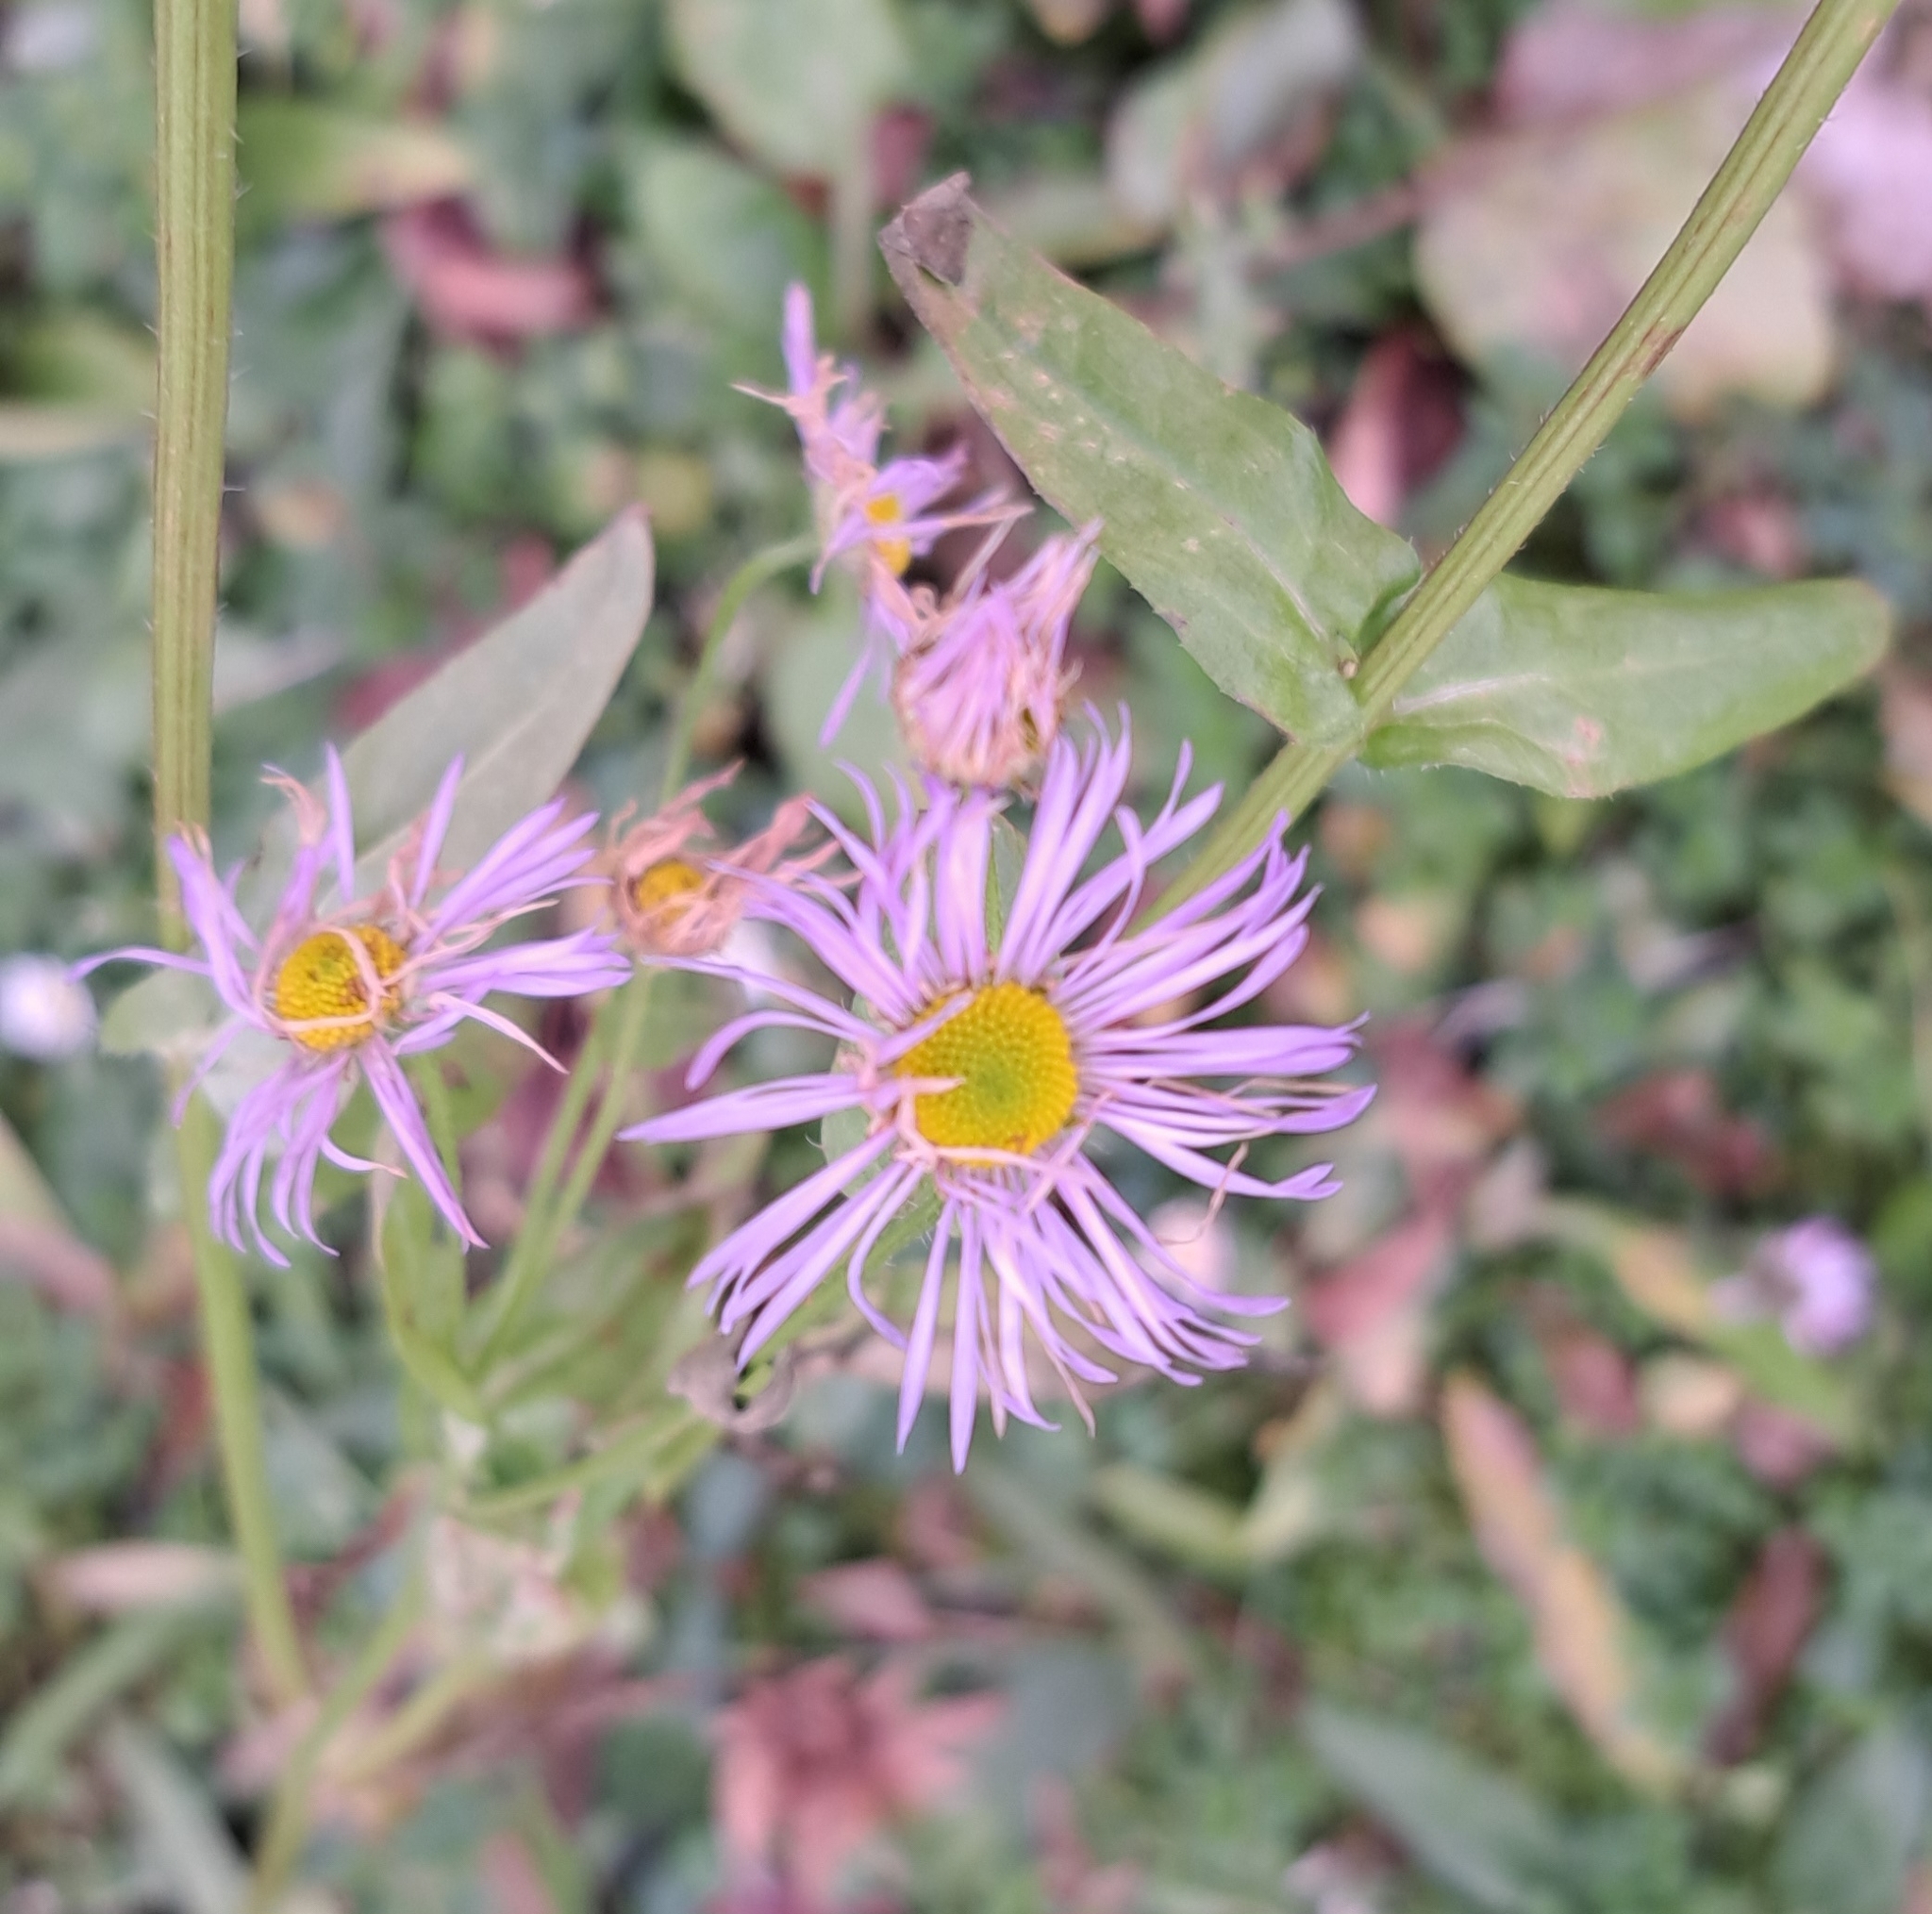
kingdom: Plantae
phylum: Tracheophyta
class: Magnoliopsida
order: Asterales
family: Asteraceae
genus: Erigeron
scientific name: Erigeron annuus
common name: Tall fleabane
